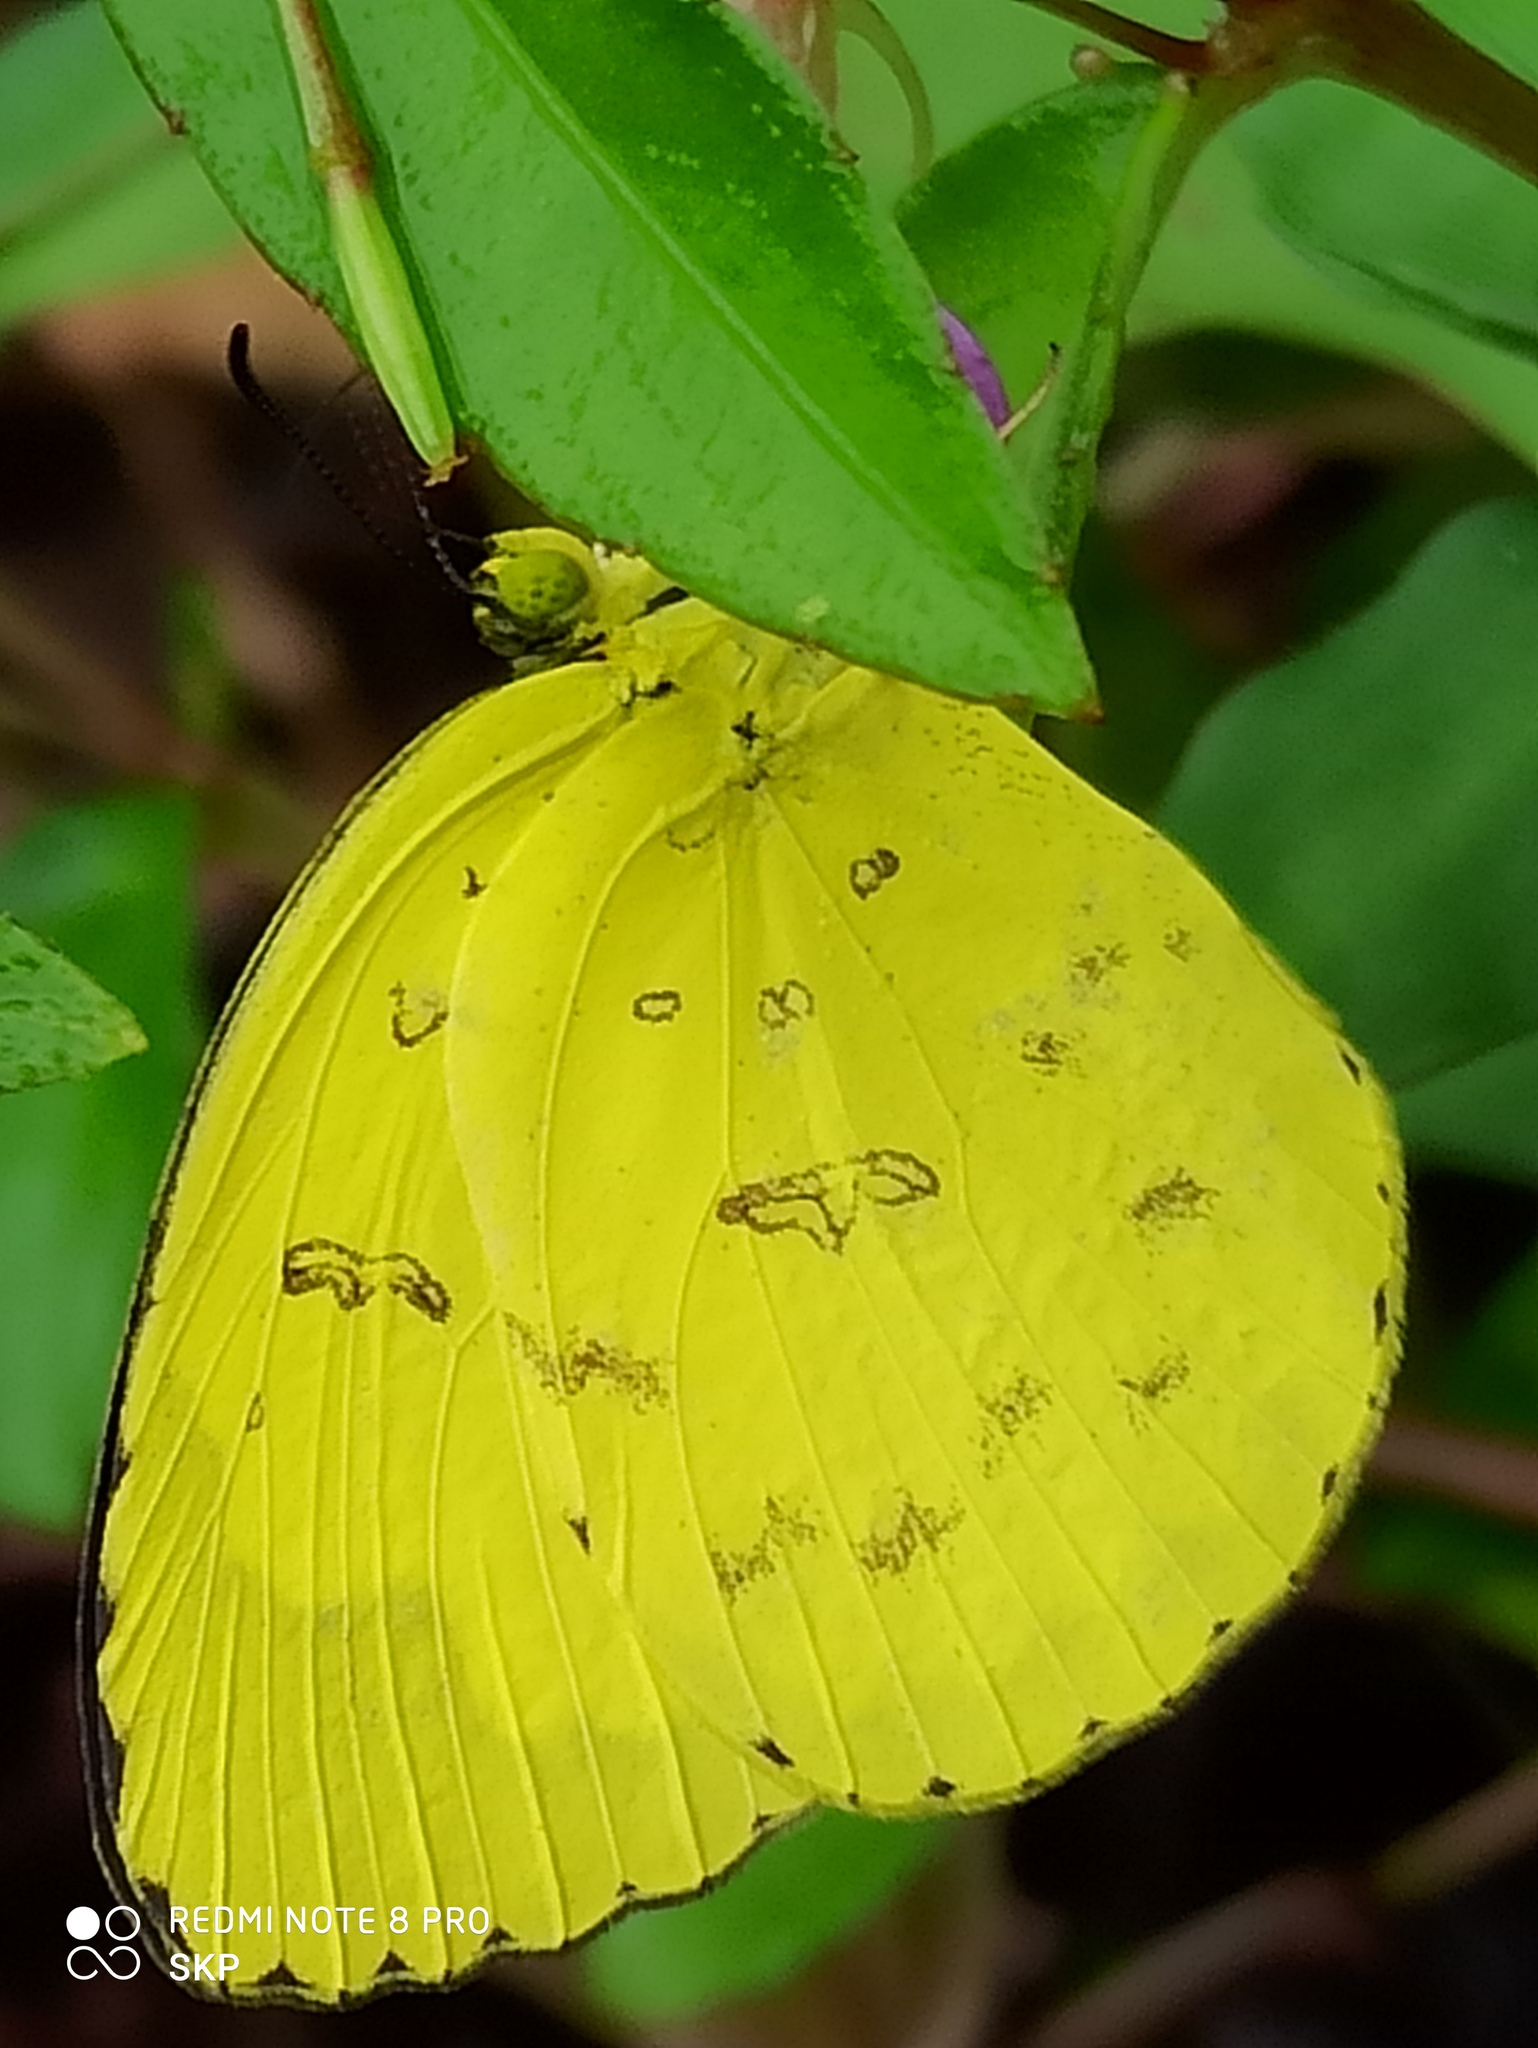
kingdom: Animalia
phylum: Arthropoda
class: Insecta
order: Lepidoptera
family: Pieridae
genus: Eurema
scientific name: Eurema hecabe
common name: Pale grass yellow
